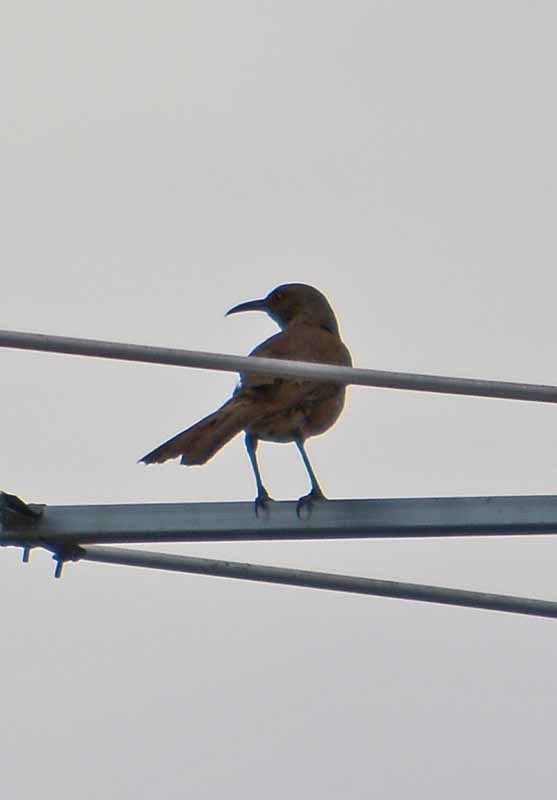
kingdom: Animalia
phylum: Chordata
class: Aves
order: Passeriformes
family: Mimidae
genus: Toxostoma
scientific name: Toxostoma curvirostre
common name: Curve-billed thrasher
